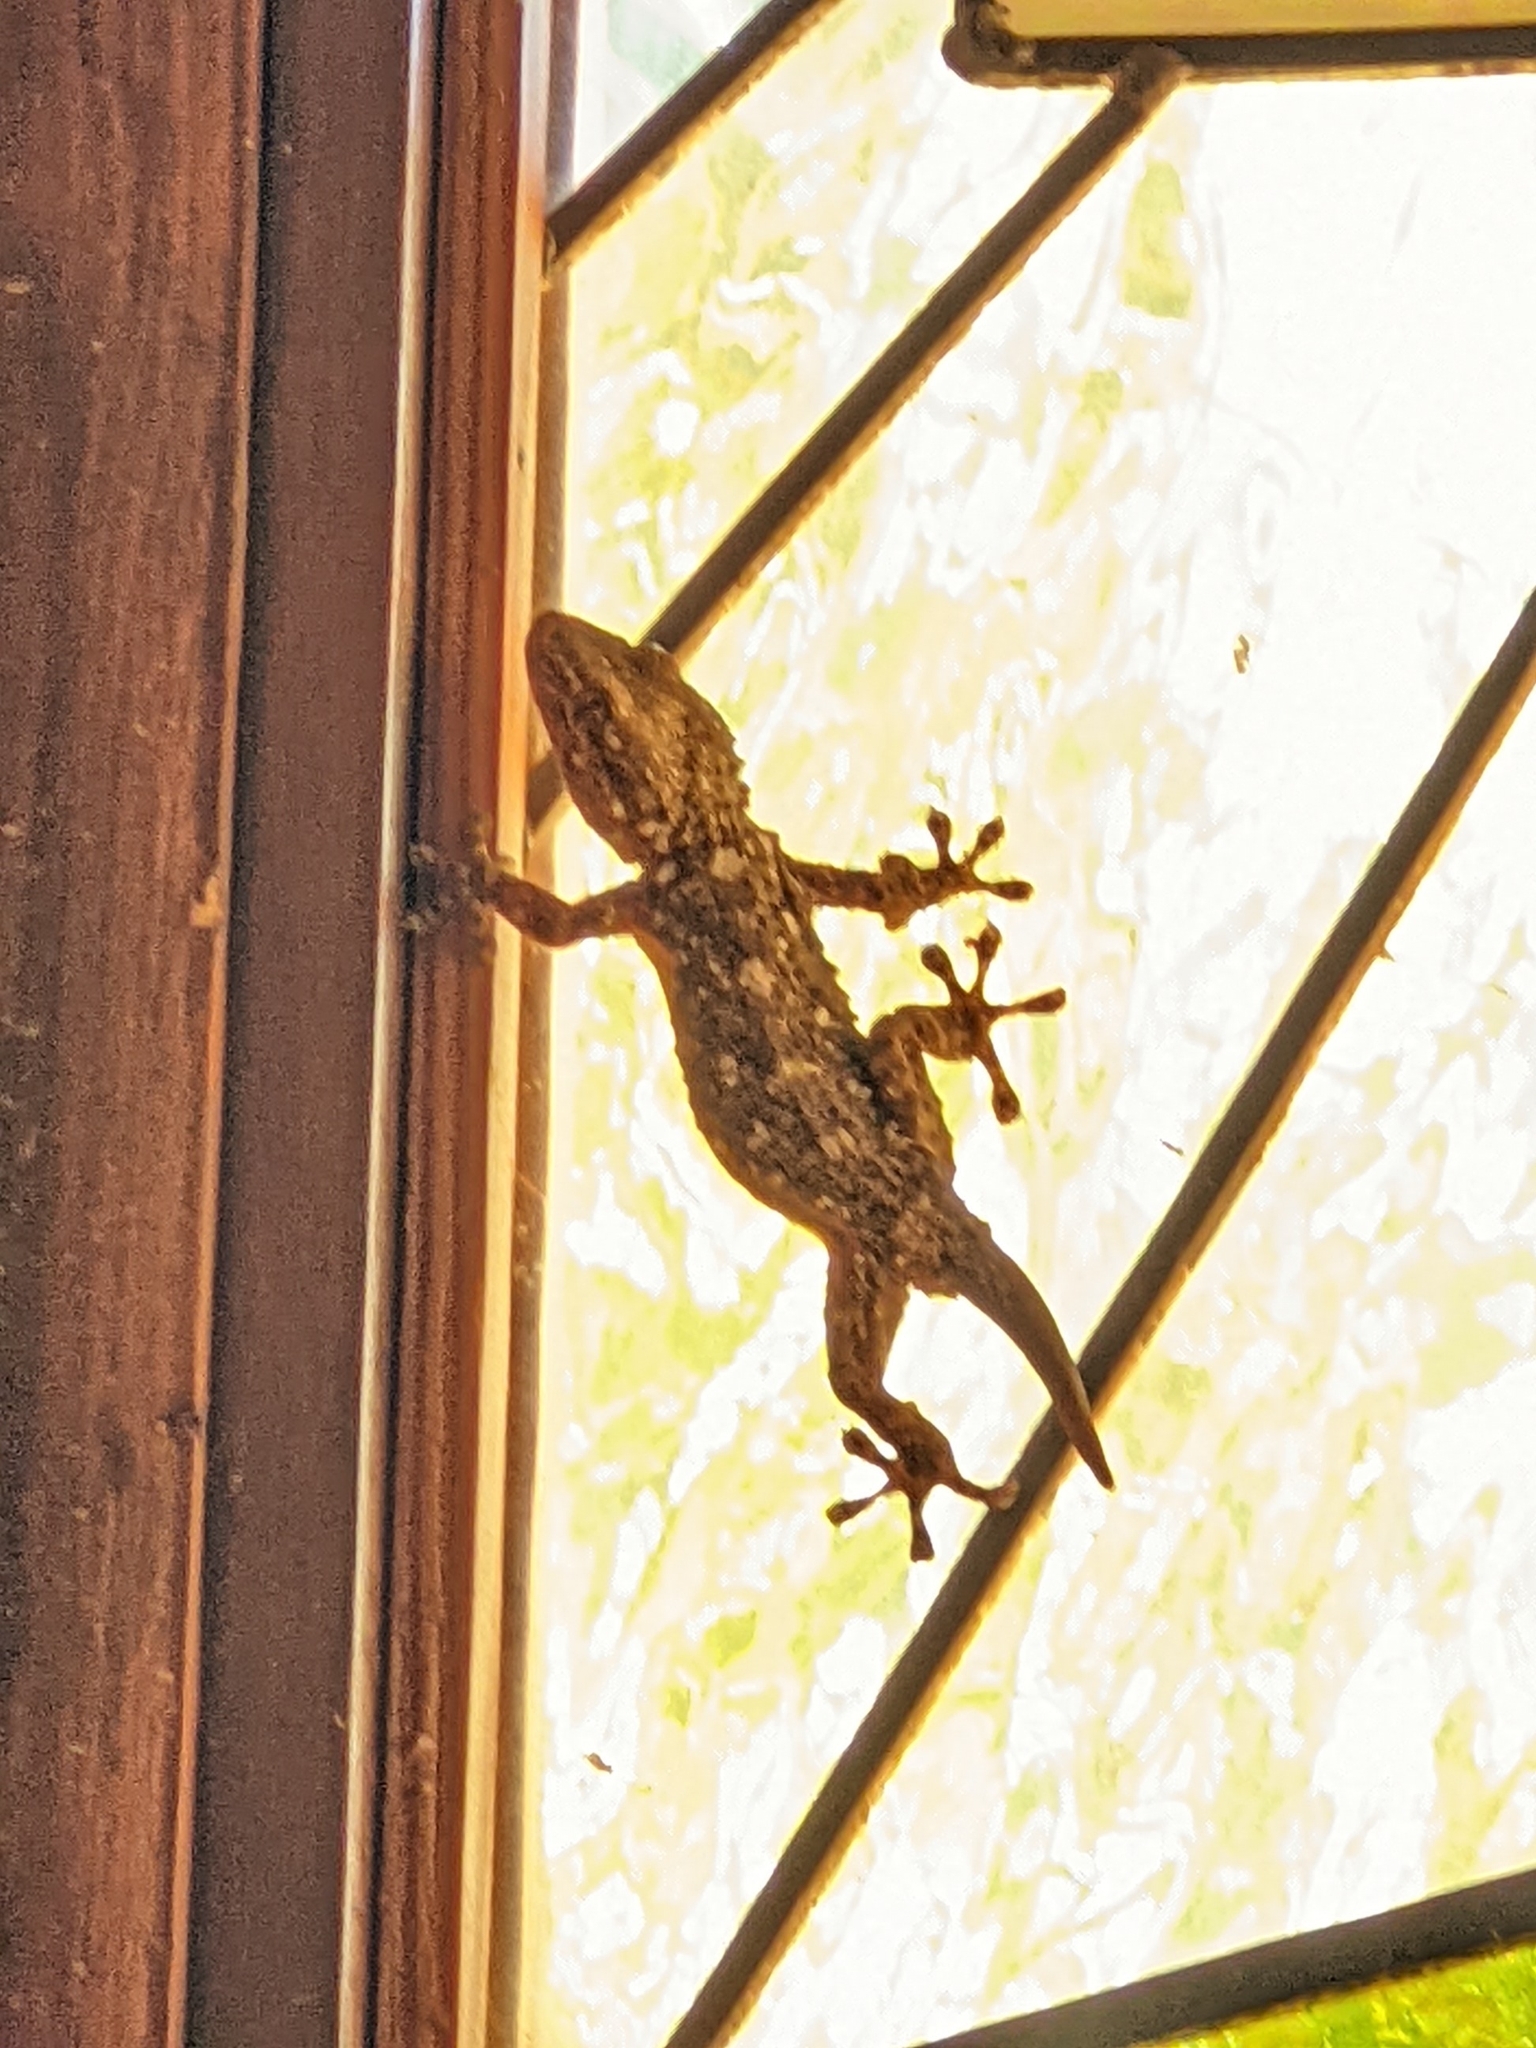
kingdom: Animalia
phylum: Chordata
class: Squamata
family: Phyllodactylidae
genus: Tarentola
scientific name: Tarentola mauritanica
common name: Moorish gecko
